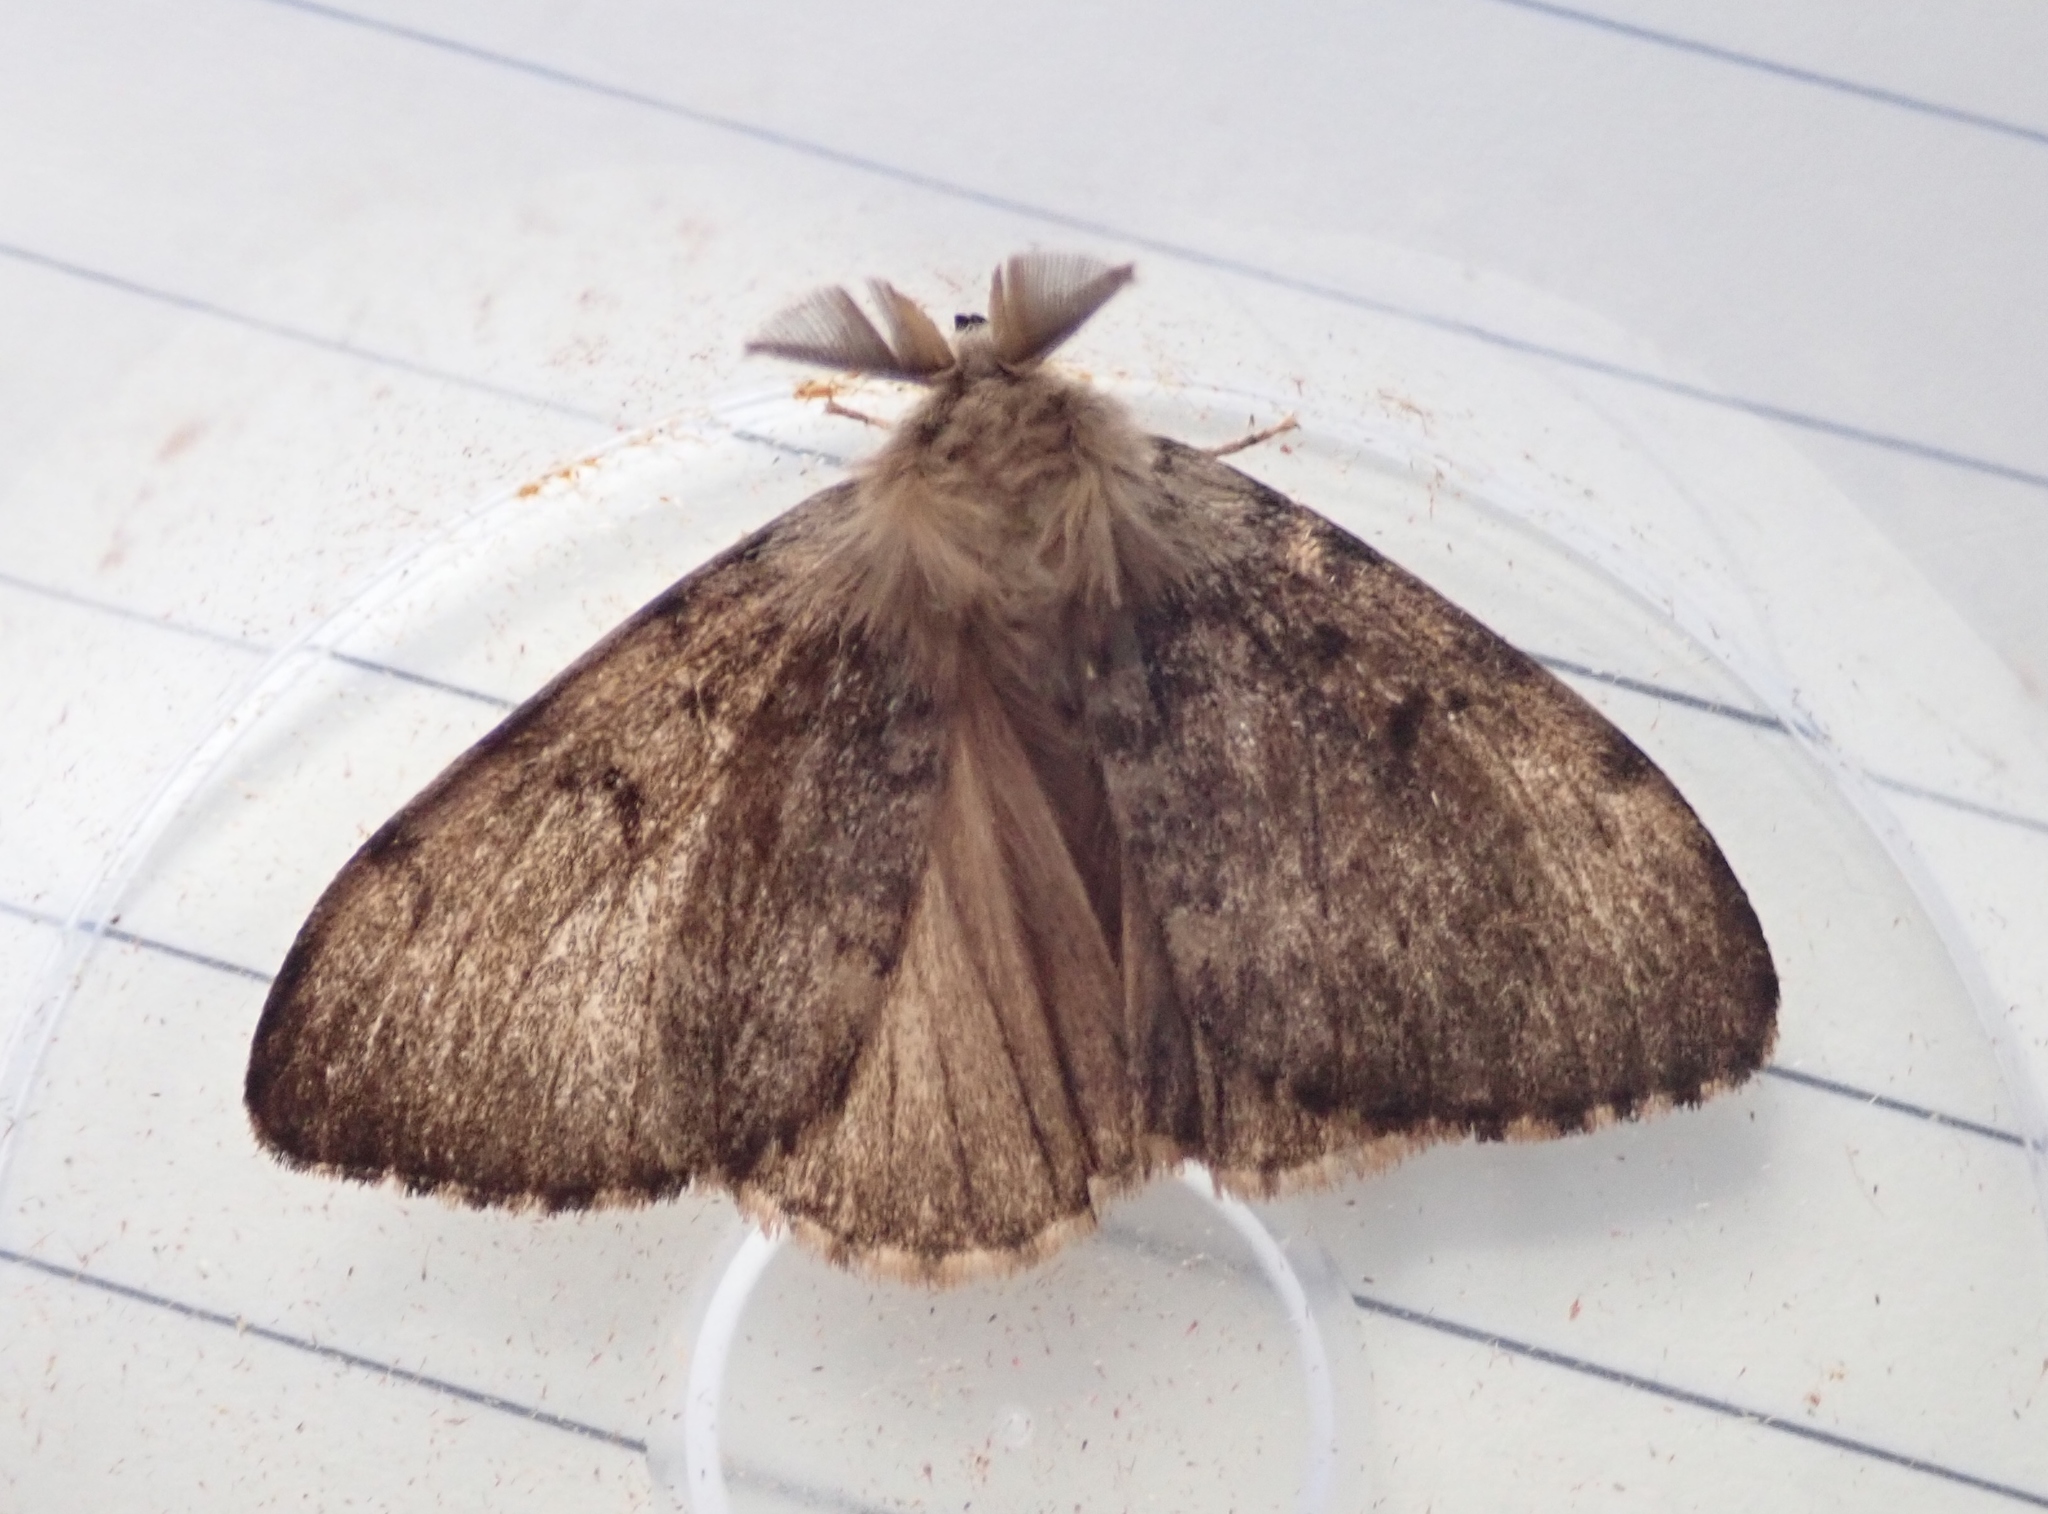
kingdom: Animalia
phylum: Arthropoda
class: Insecta
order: Lepidoptera
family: Erebidae
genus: Lymantria
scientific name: Lymantria dispar
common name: Gypsy moth
